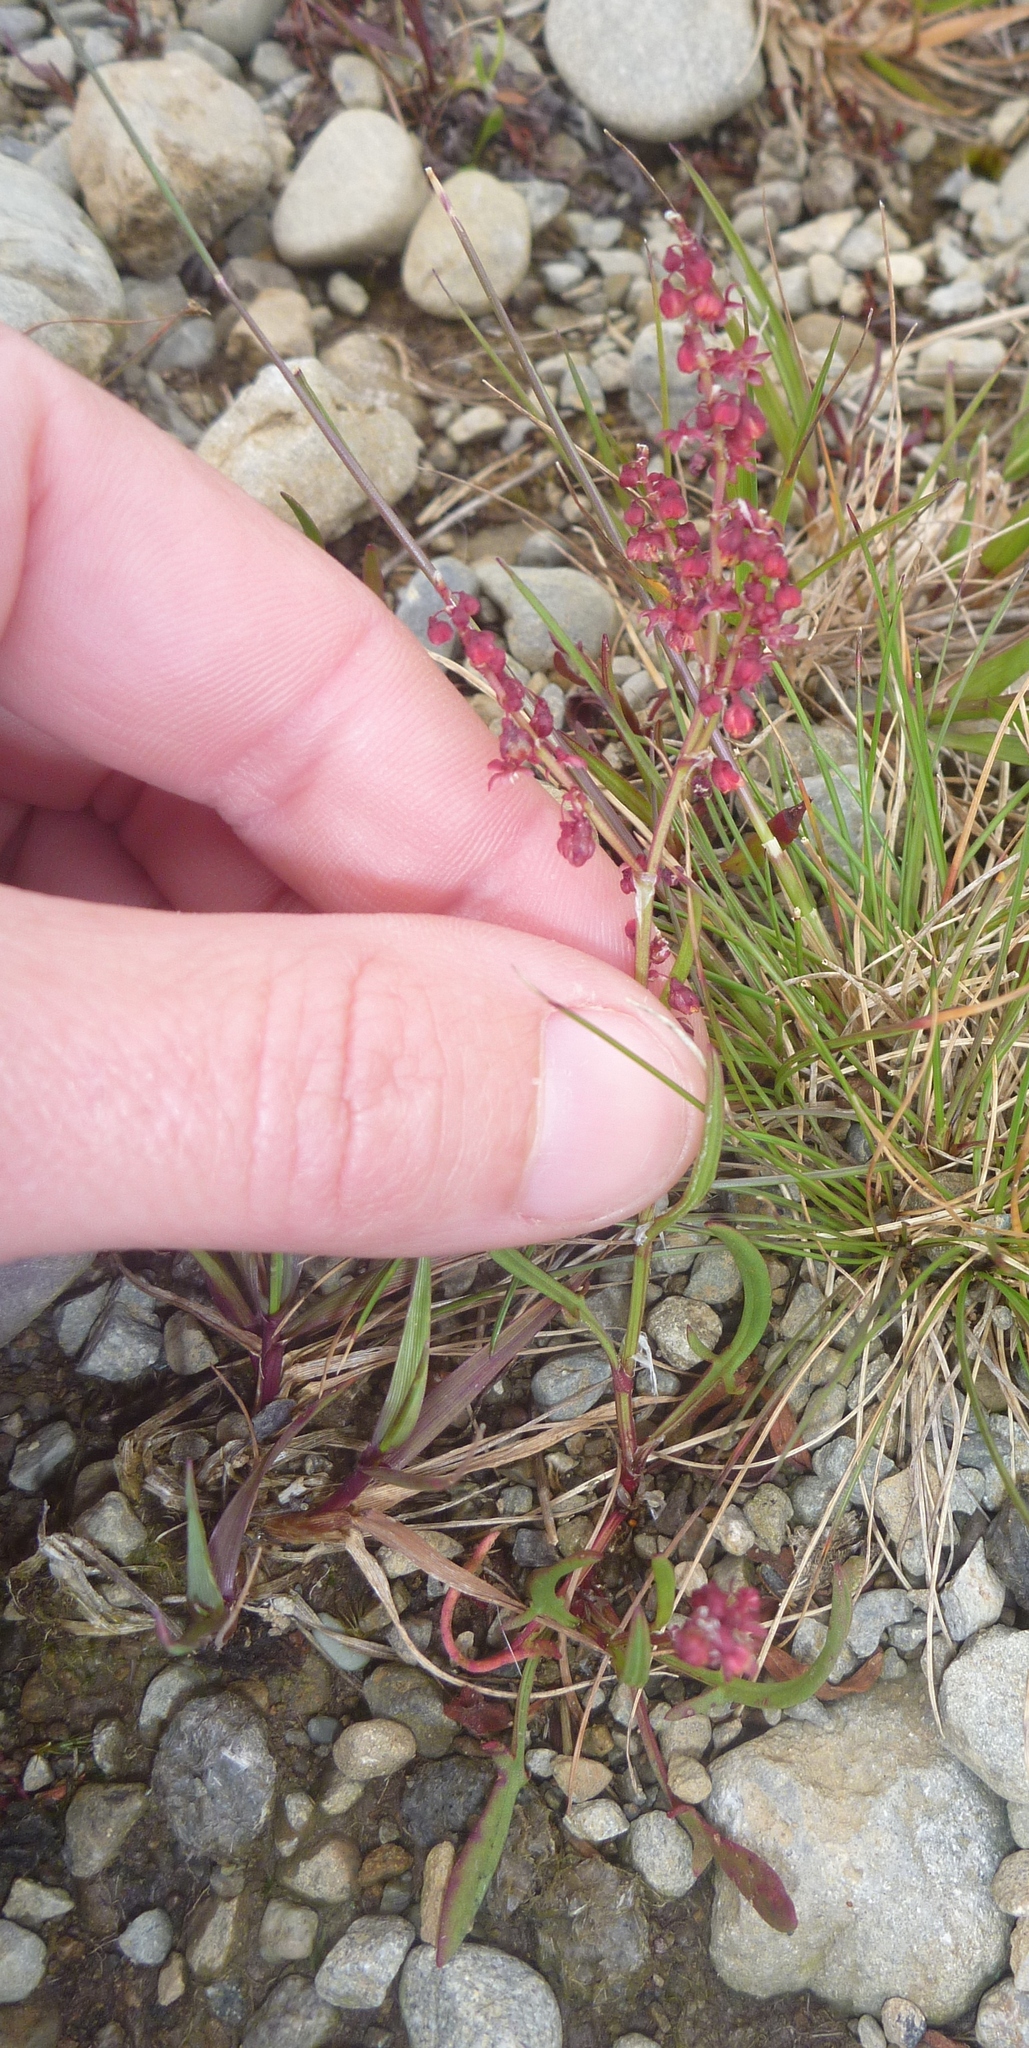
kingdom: Plantae
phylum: Tracheophyta
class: Magnoliopsida
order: Caryophyllales
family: Polygonaceae
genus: Rumex
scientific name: Rumex acetosella
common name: Common sheep sorrel
